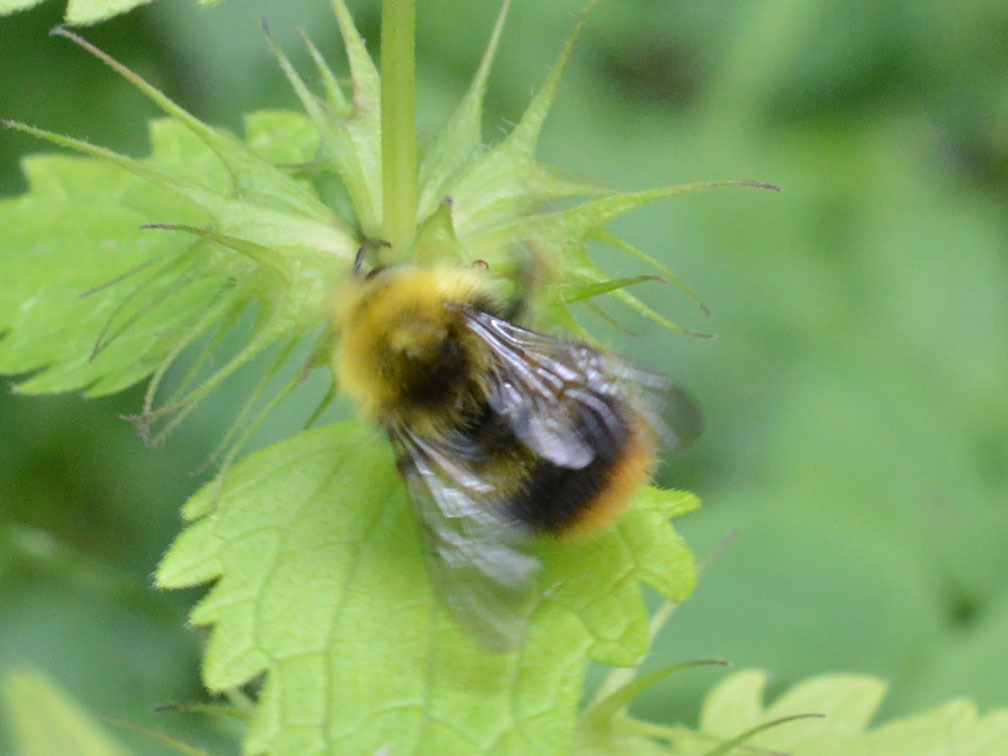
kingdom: Animalia
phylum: Arthropoda
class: Insecta
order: Hymenoptera
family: Apidae
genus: Bombus
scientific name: Bombus pratorum
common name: Early humble-bee
